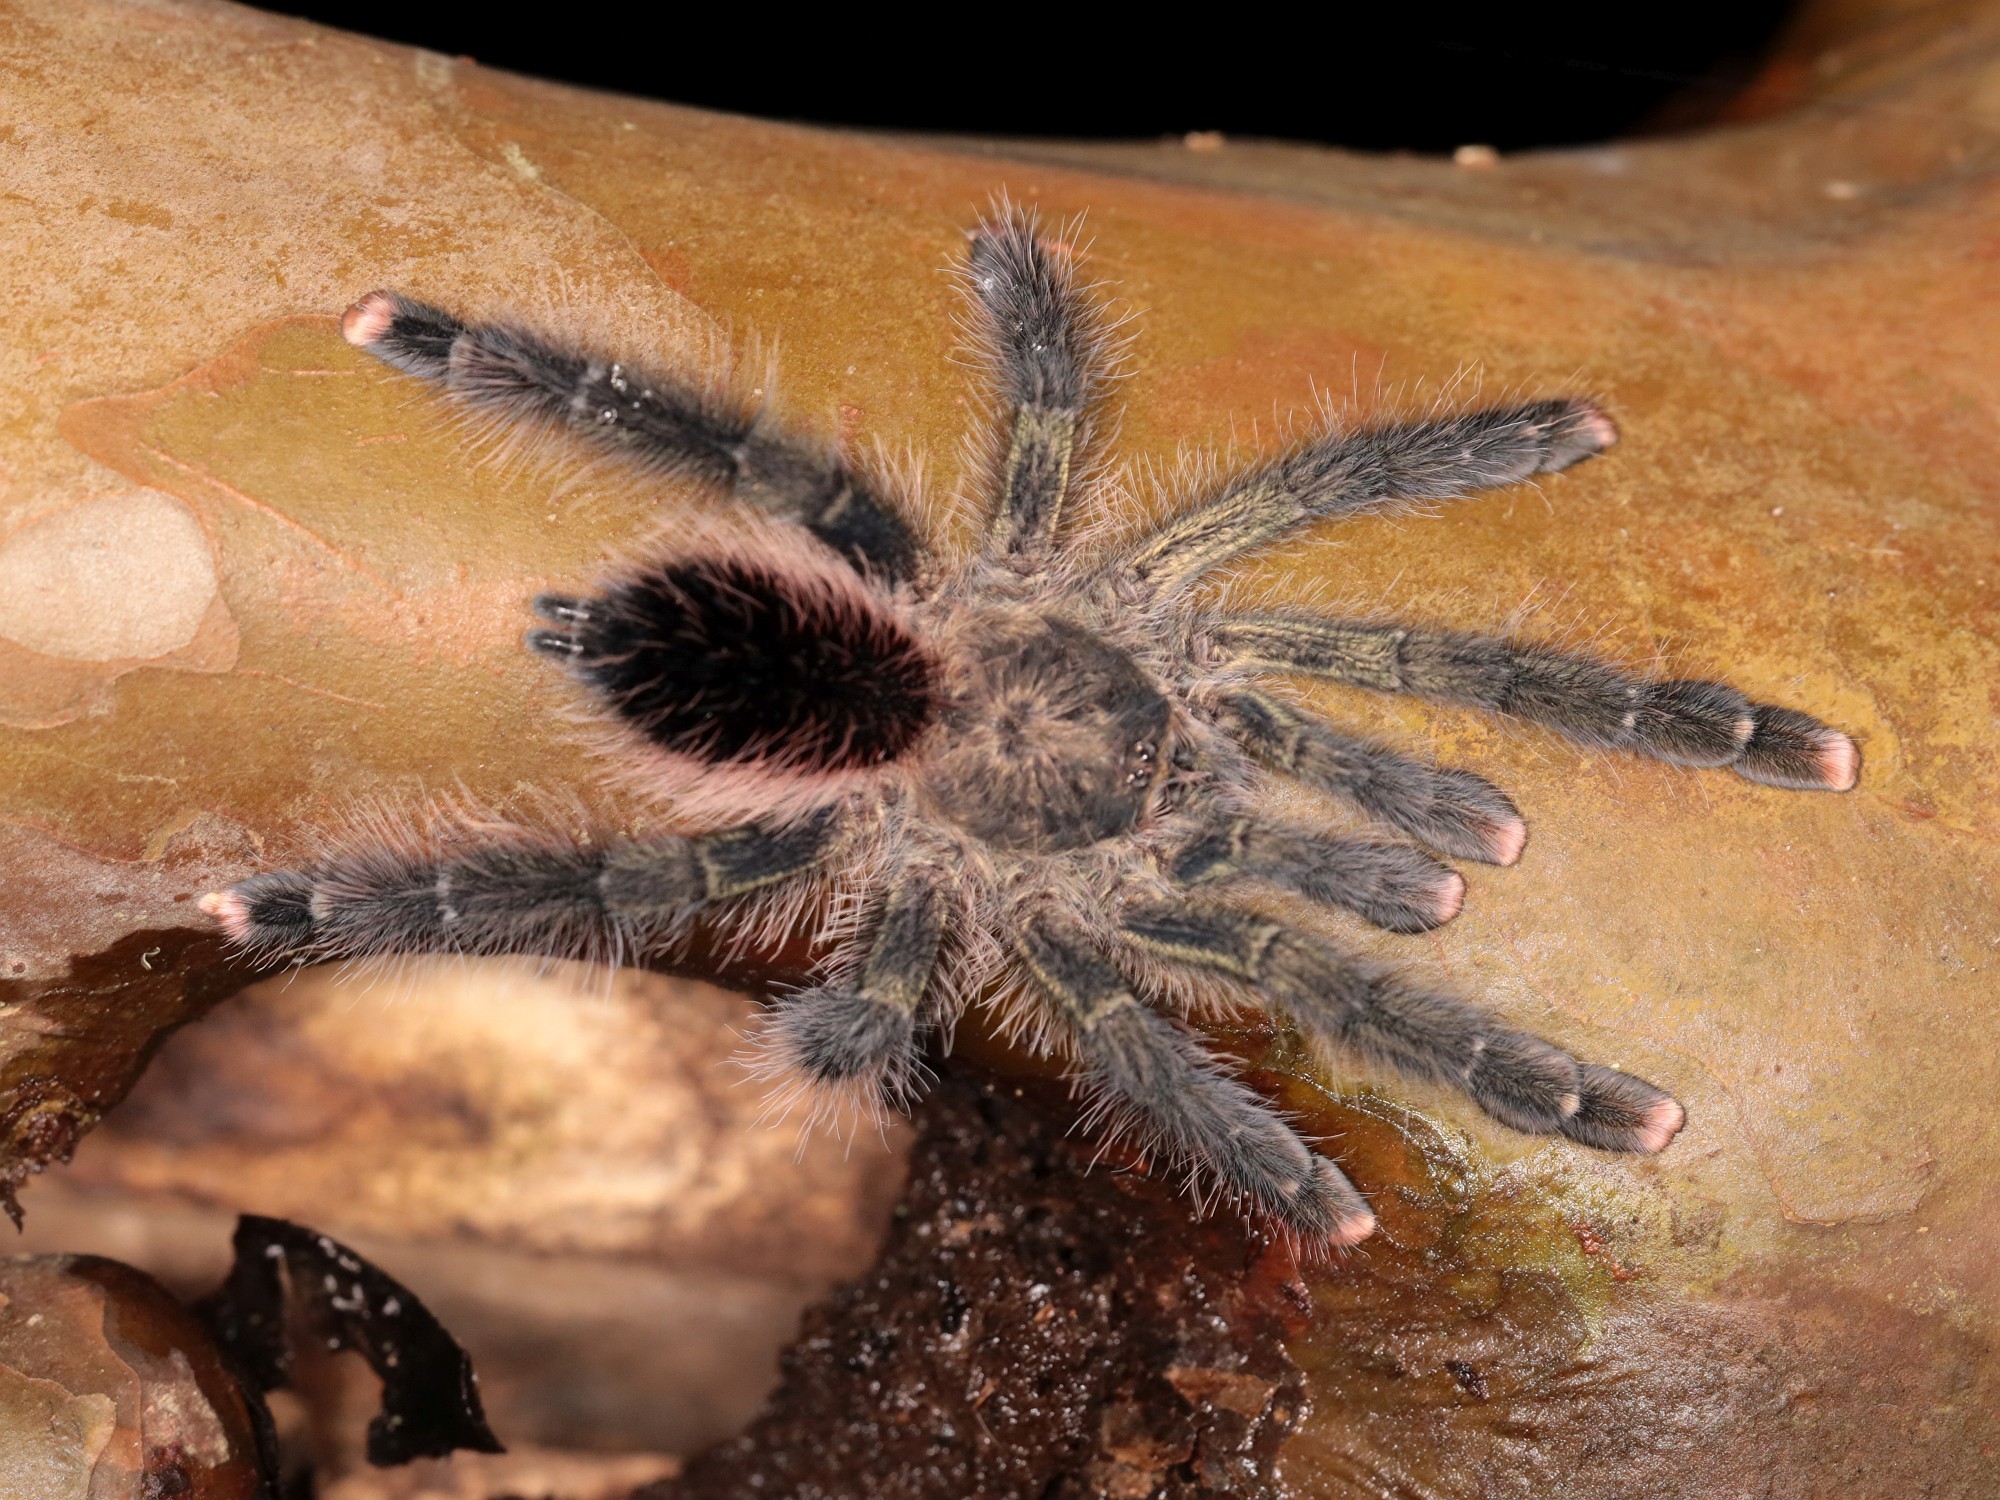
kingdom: Animalia
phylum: Arthropoda
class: Arachnida
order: Araneae
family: Theraphosidae
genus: Avicularia
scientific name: Avicularia juruensis
